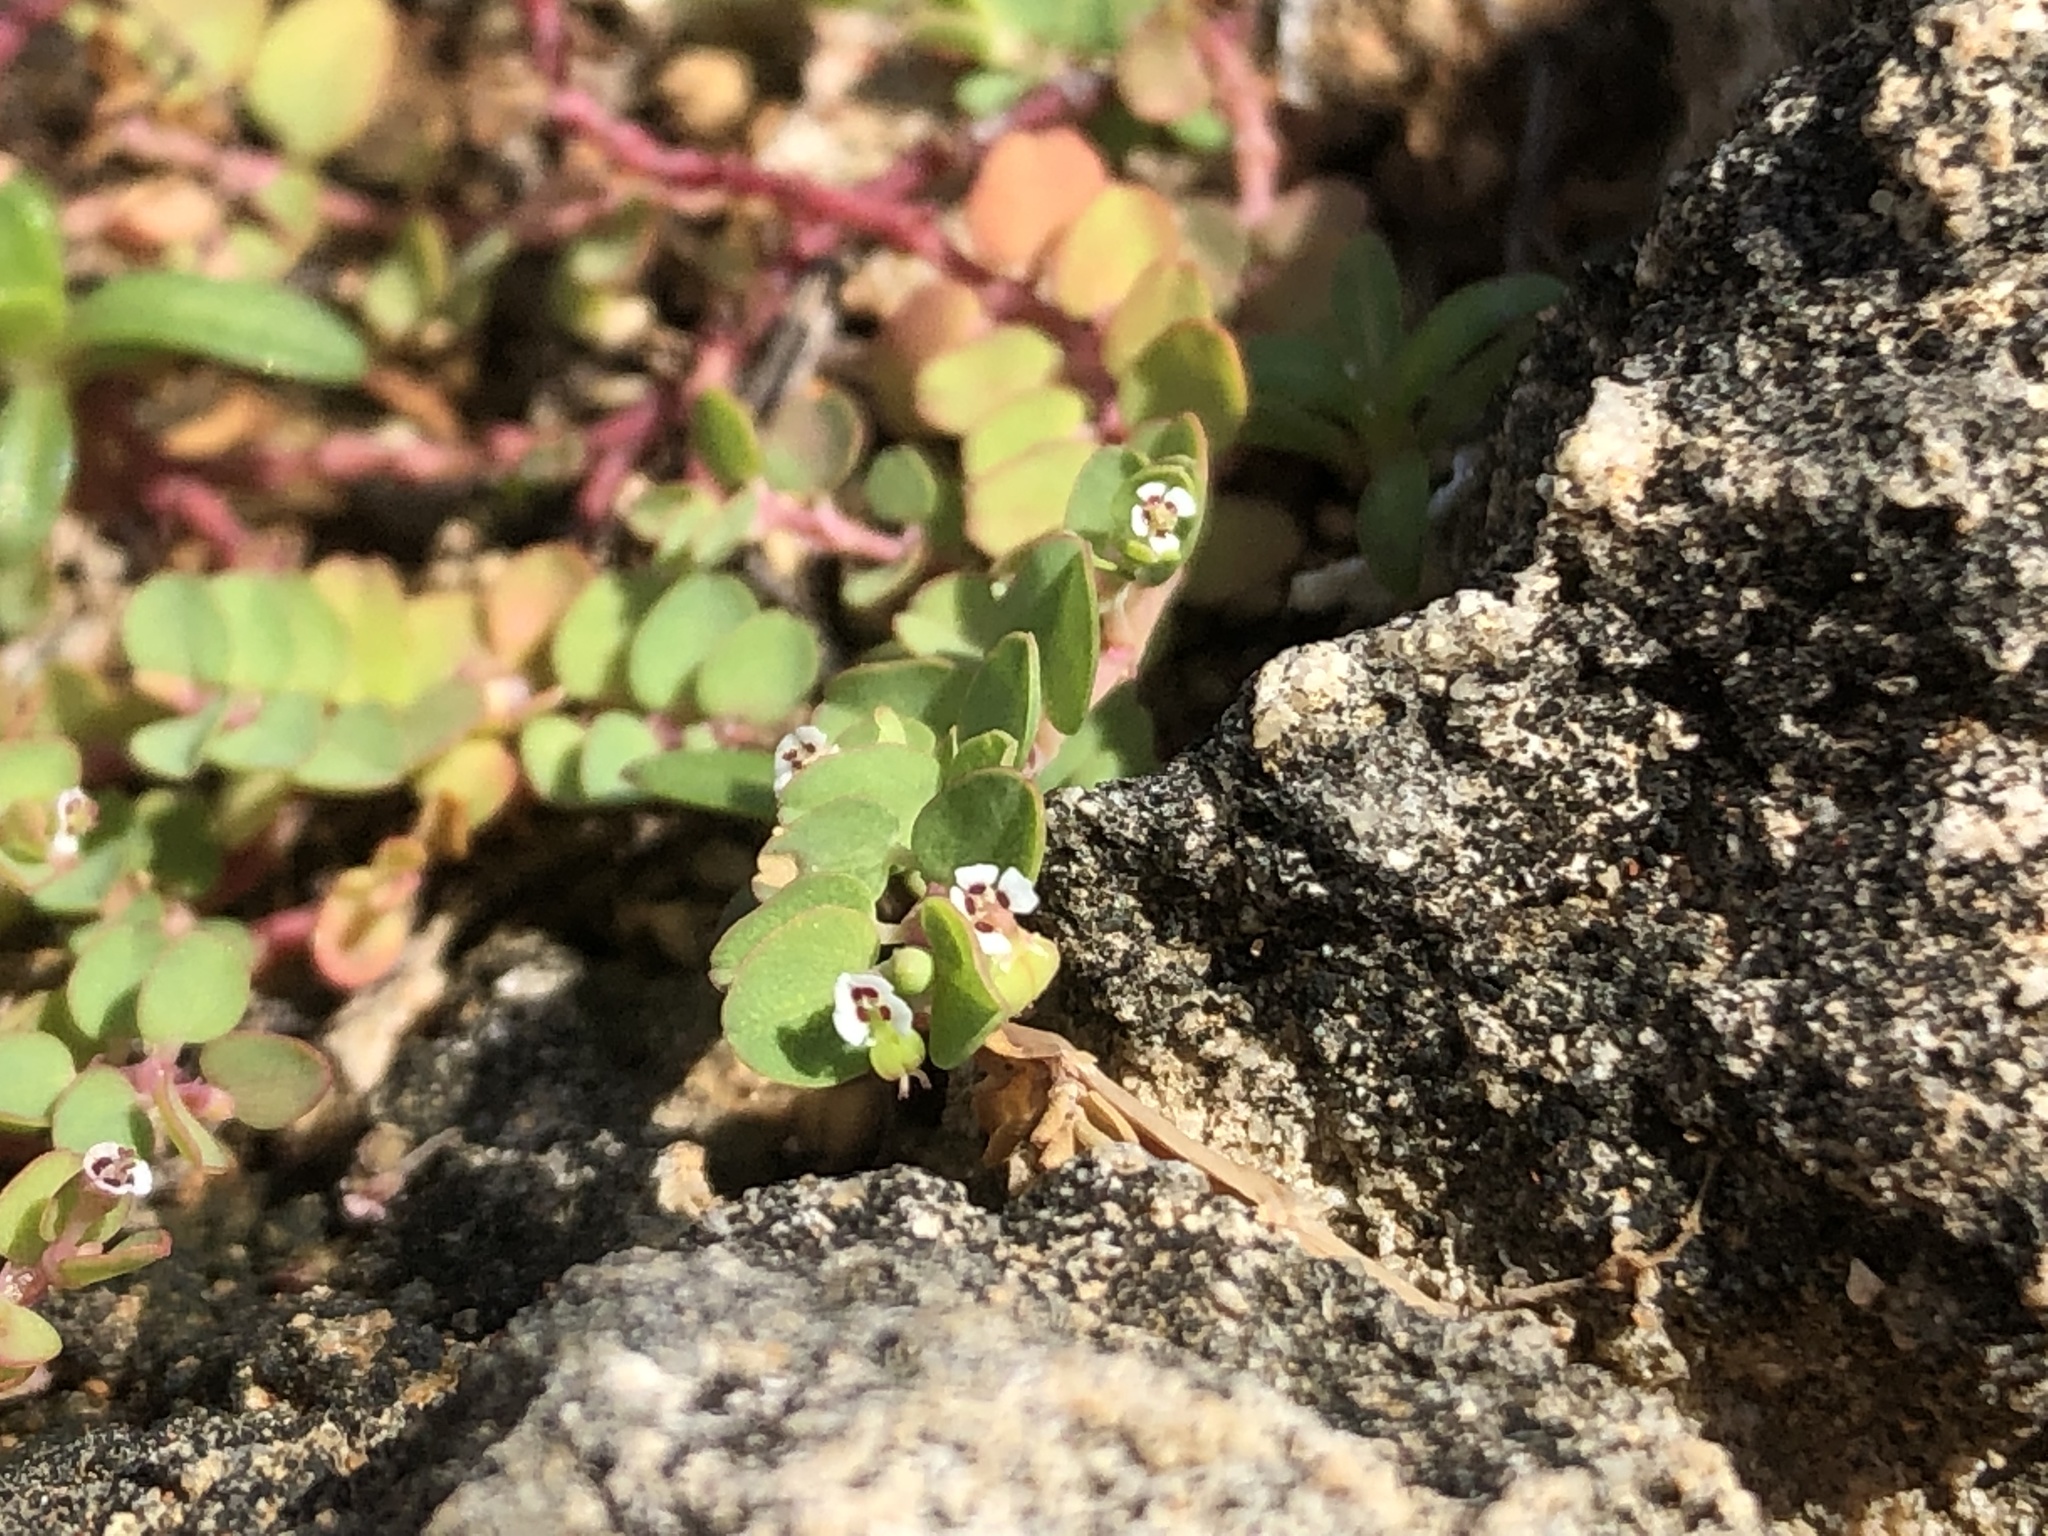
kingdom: Plantae
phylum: Tracheophyta
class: Magnoliopsida
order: Malpighiales
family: Euphorbiaceae
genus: Euphorbia
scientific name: Euphorbia serpens
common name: Matted sandmat
